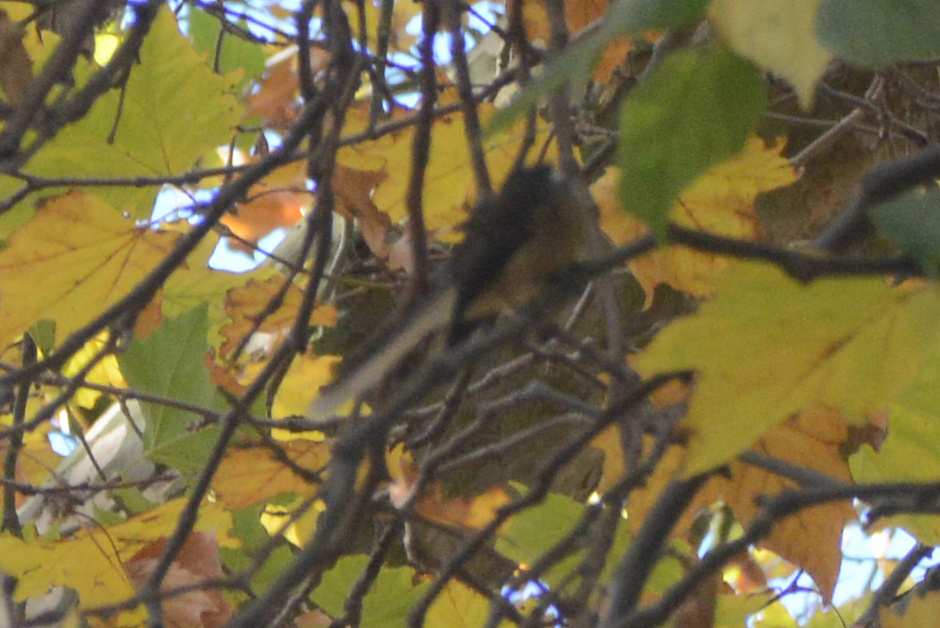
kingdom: Animalia
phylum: Chordata
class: Aves
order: Passeriformes
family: Rhipiduridae
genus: Rhipidura
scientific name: Rhipidura fuliginosa
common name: New zealand fantail
